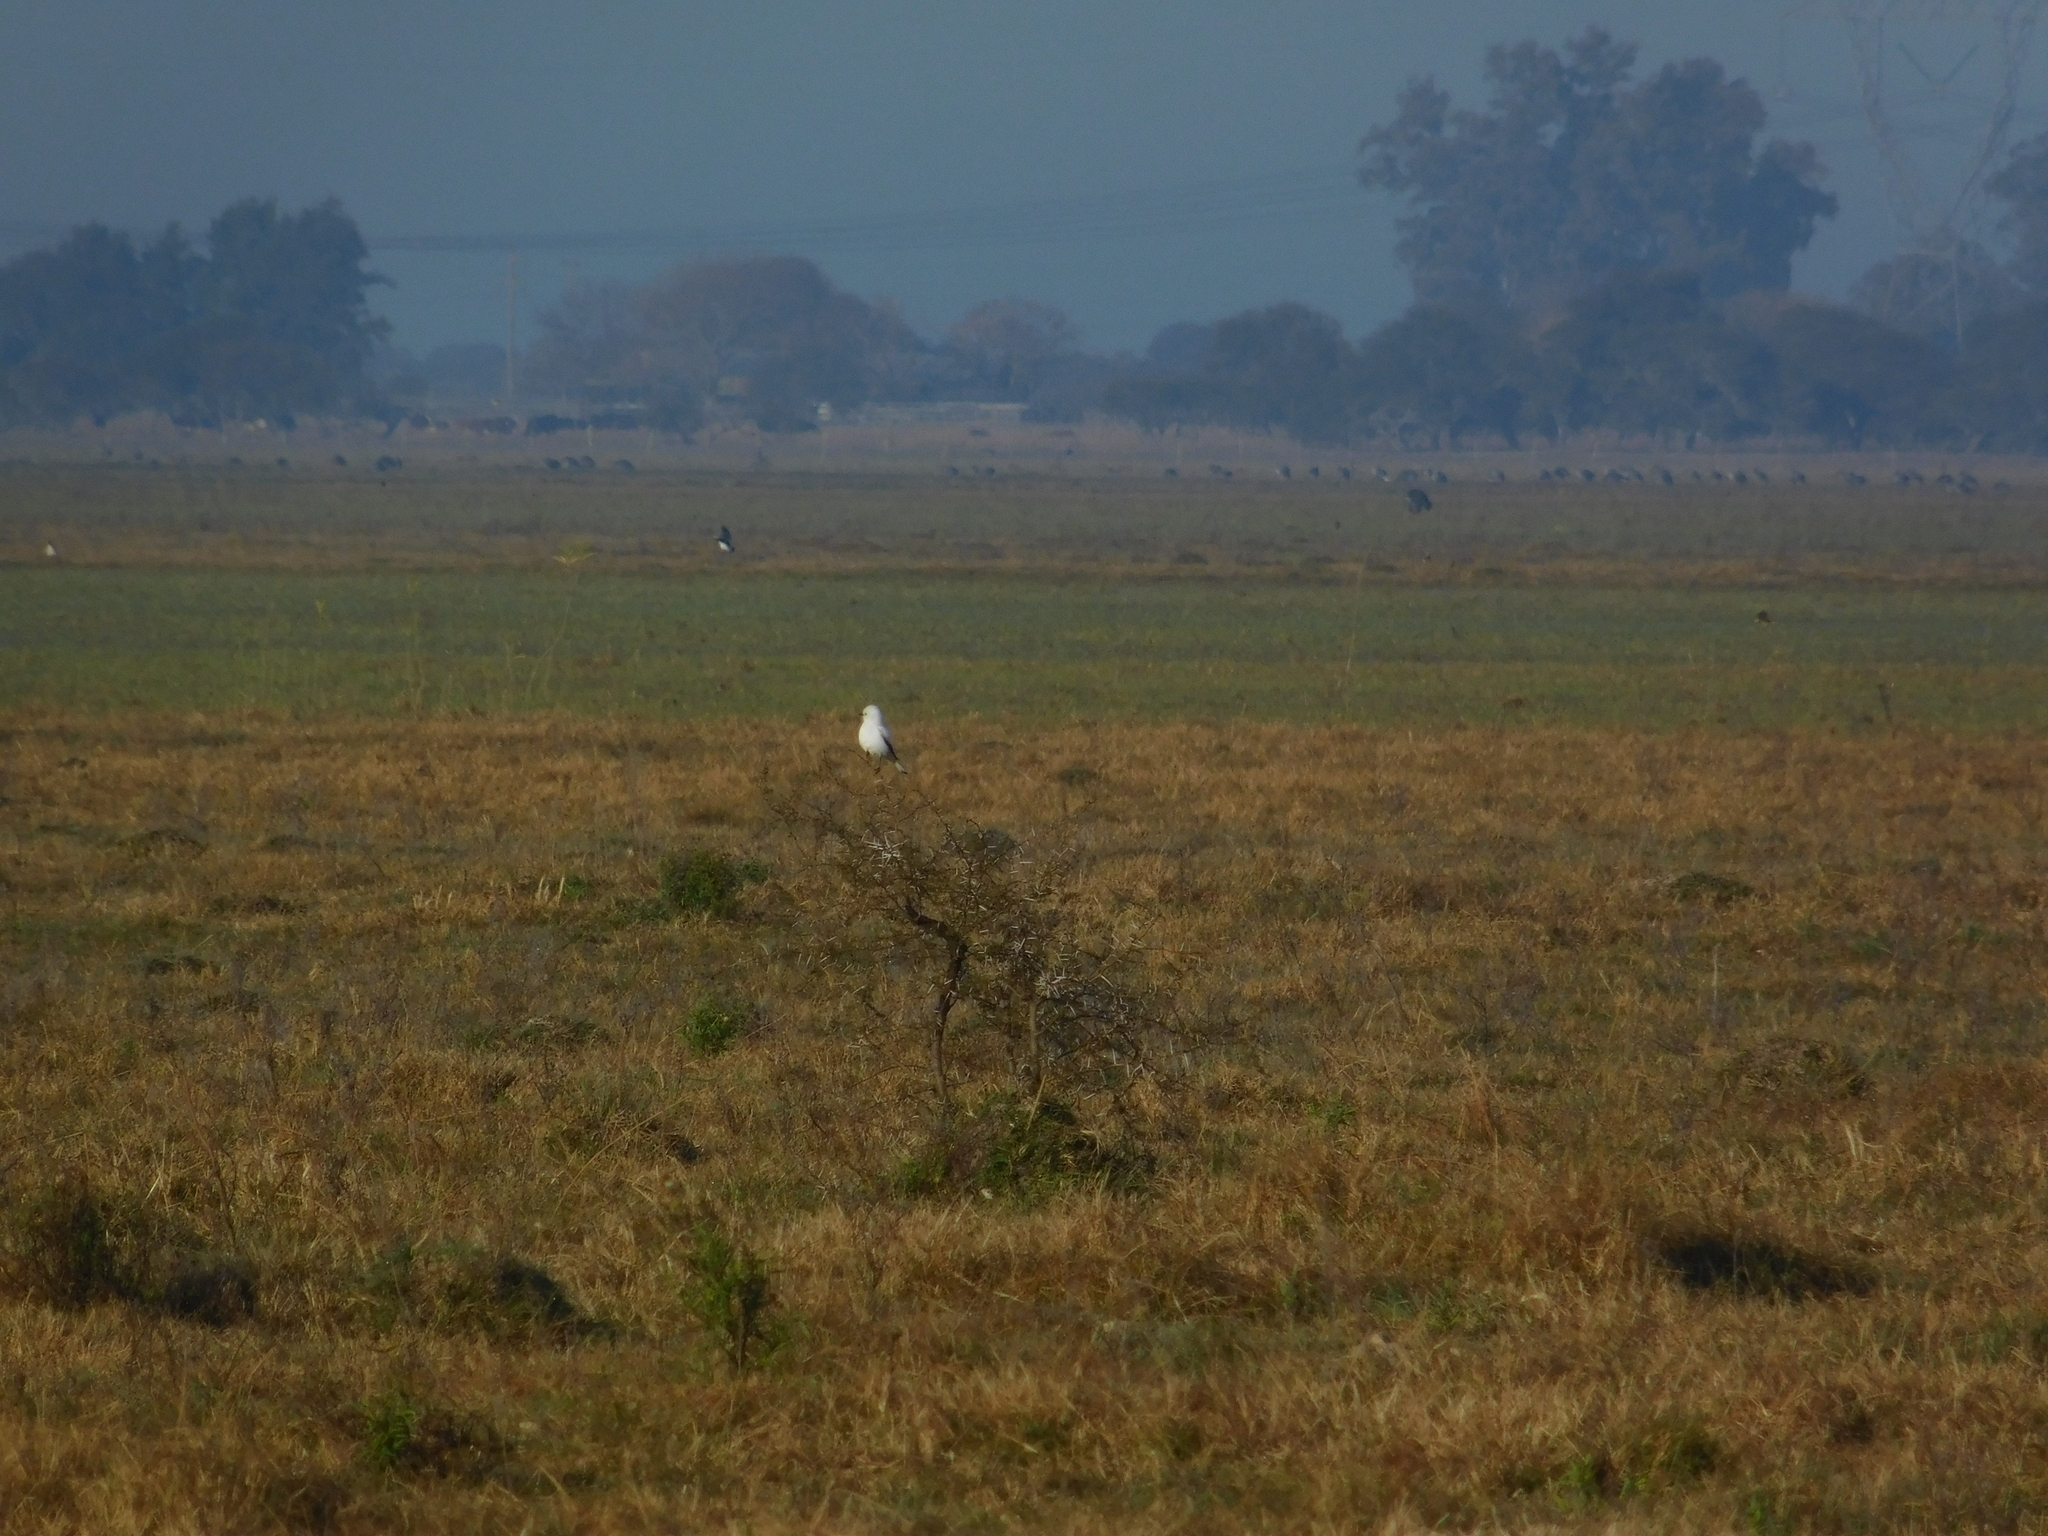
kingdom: Animalia
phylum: Chordata
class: Aves
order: Passeriformes
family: Tyrannidae
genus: Xolmis
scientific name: Xolmis irupero
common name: White monjita
